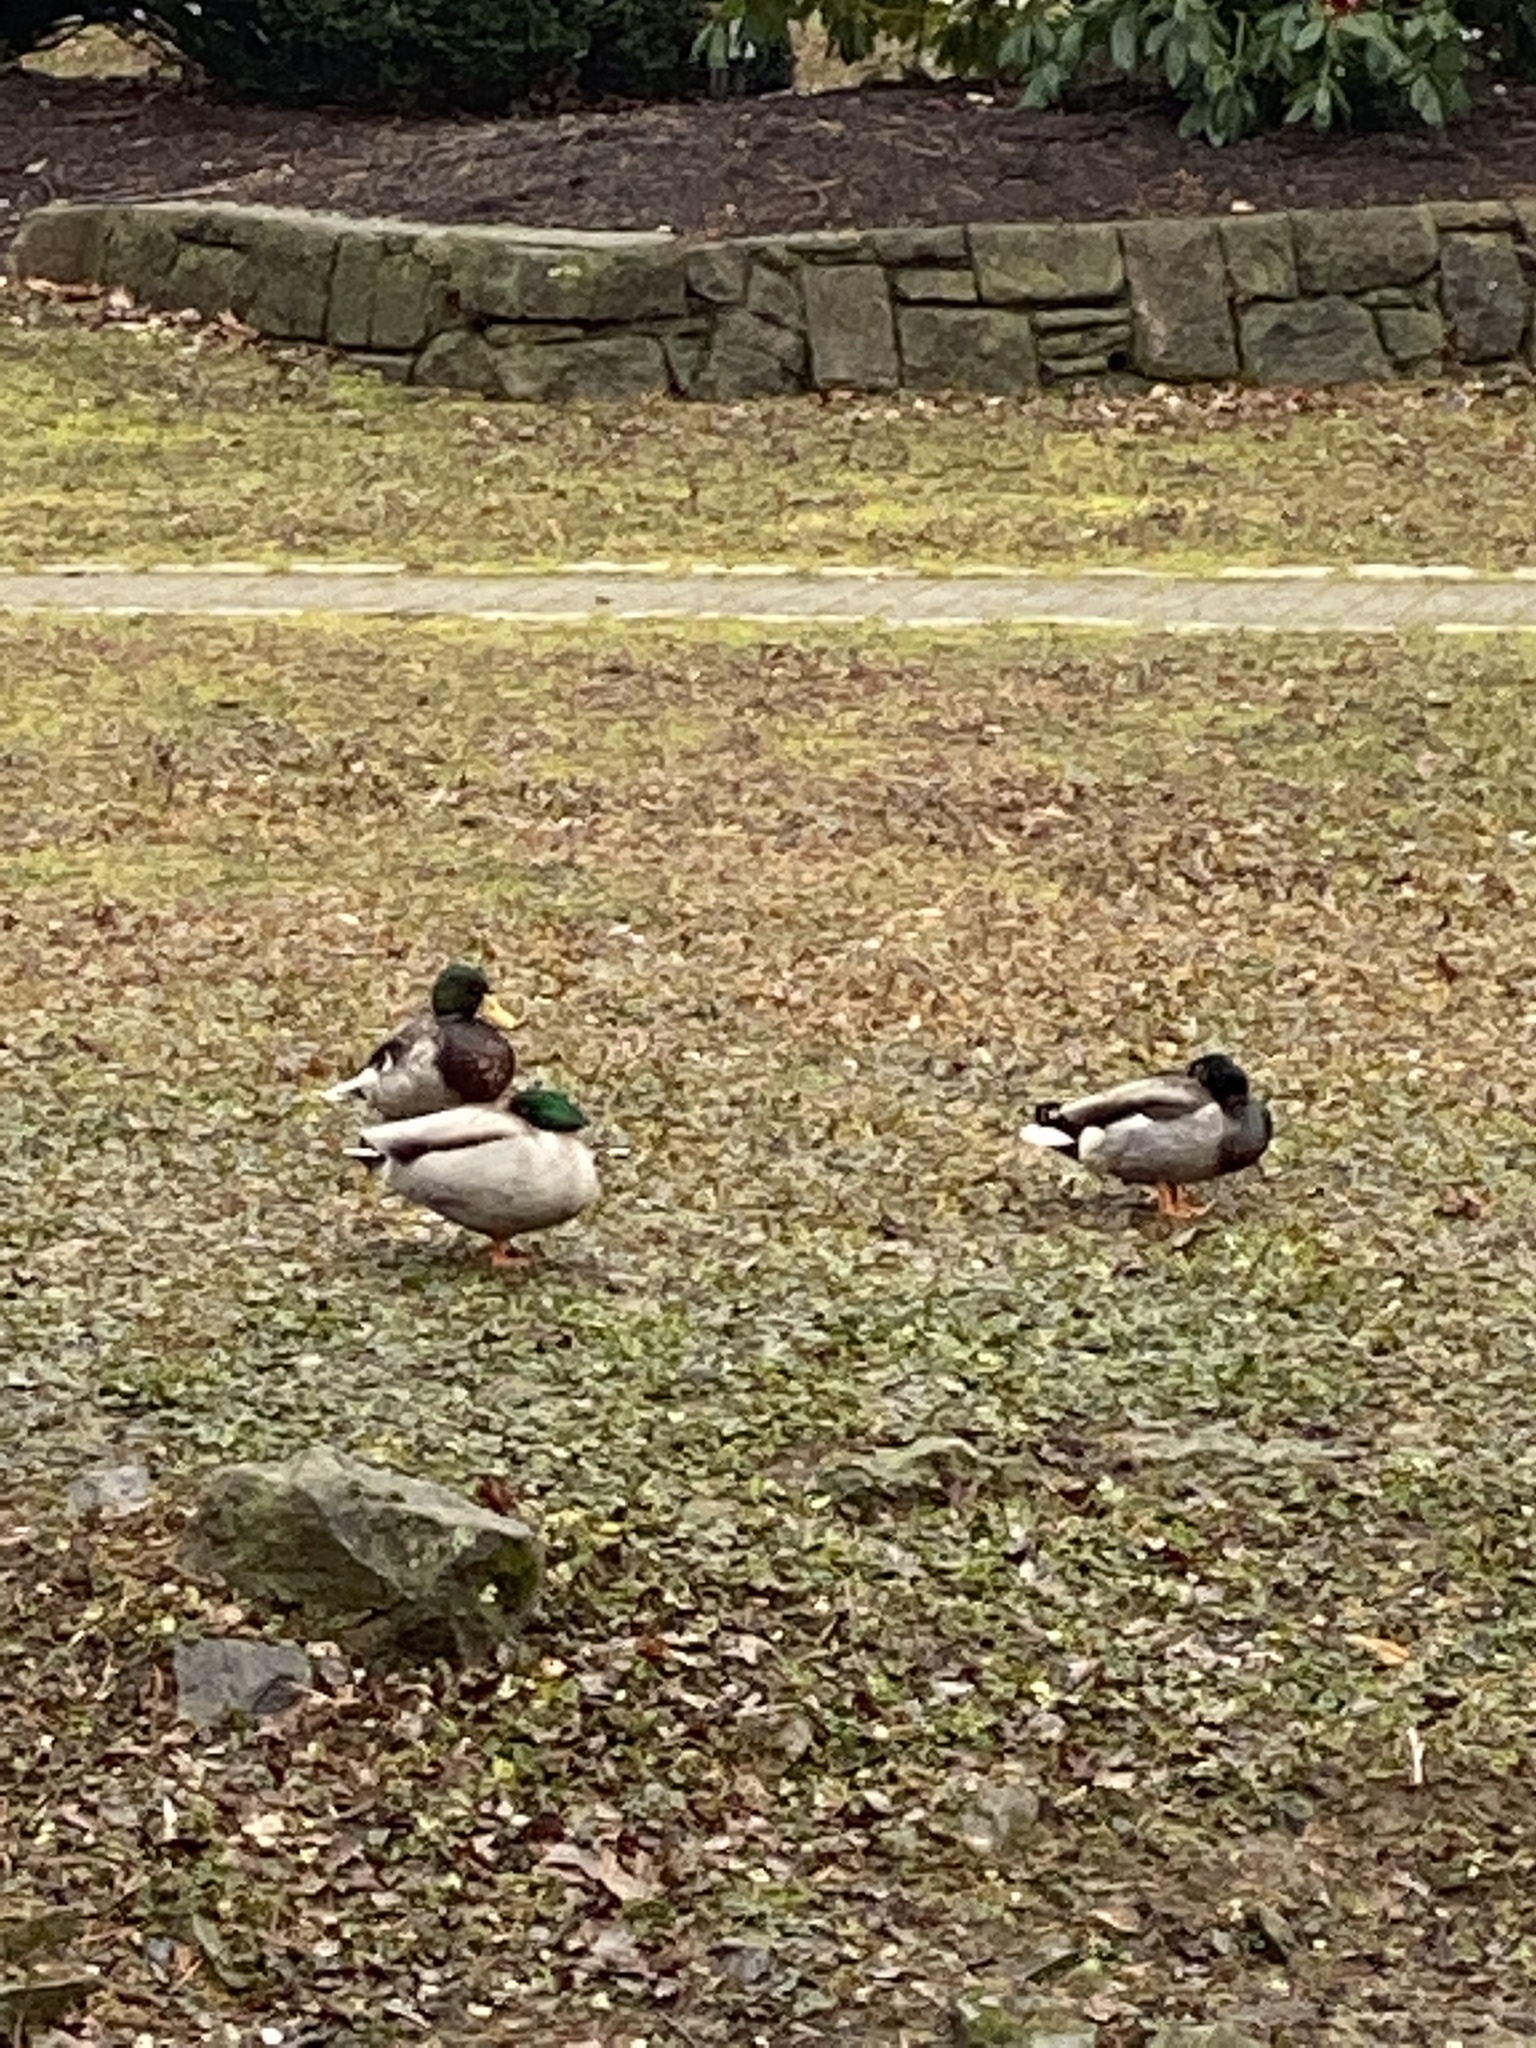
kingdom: Animalia
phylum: Chordata
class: Aves
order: Anseriformes
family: Anatidae
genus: Anas
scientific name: Anas platyrhynchos
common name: Mallard
